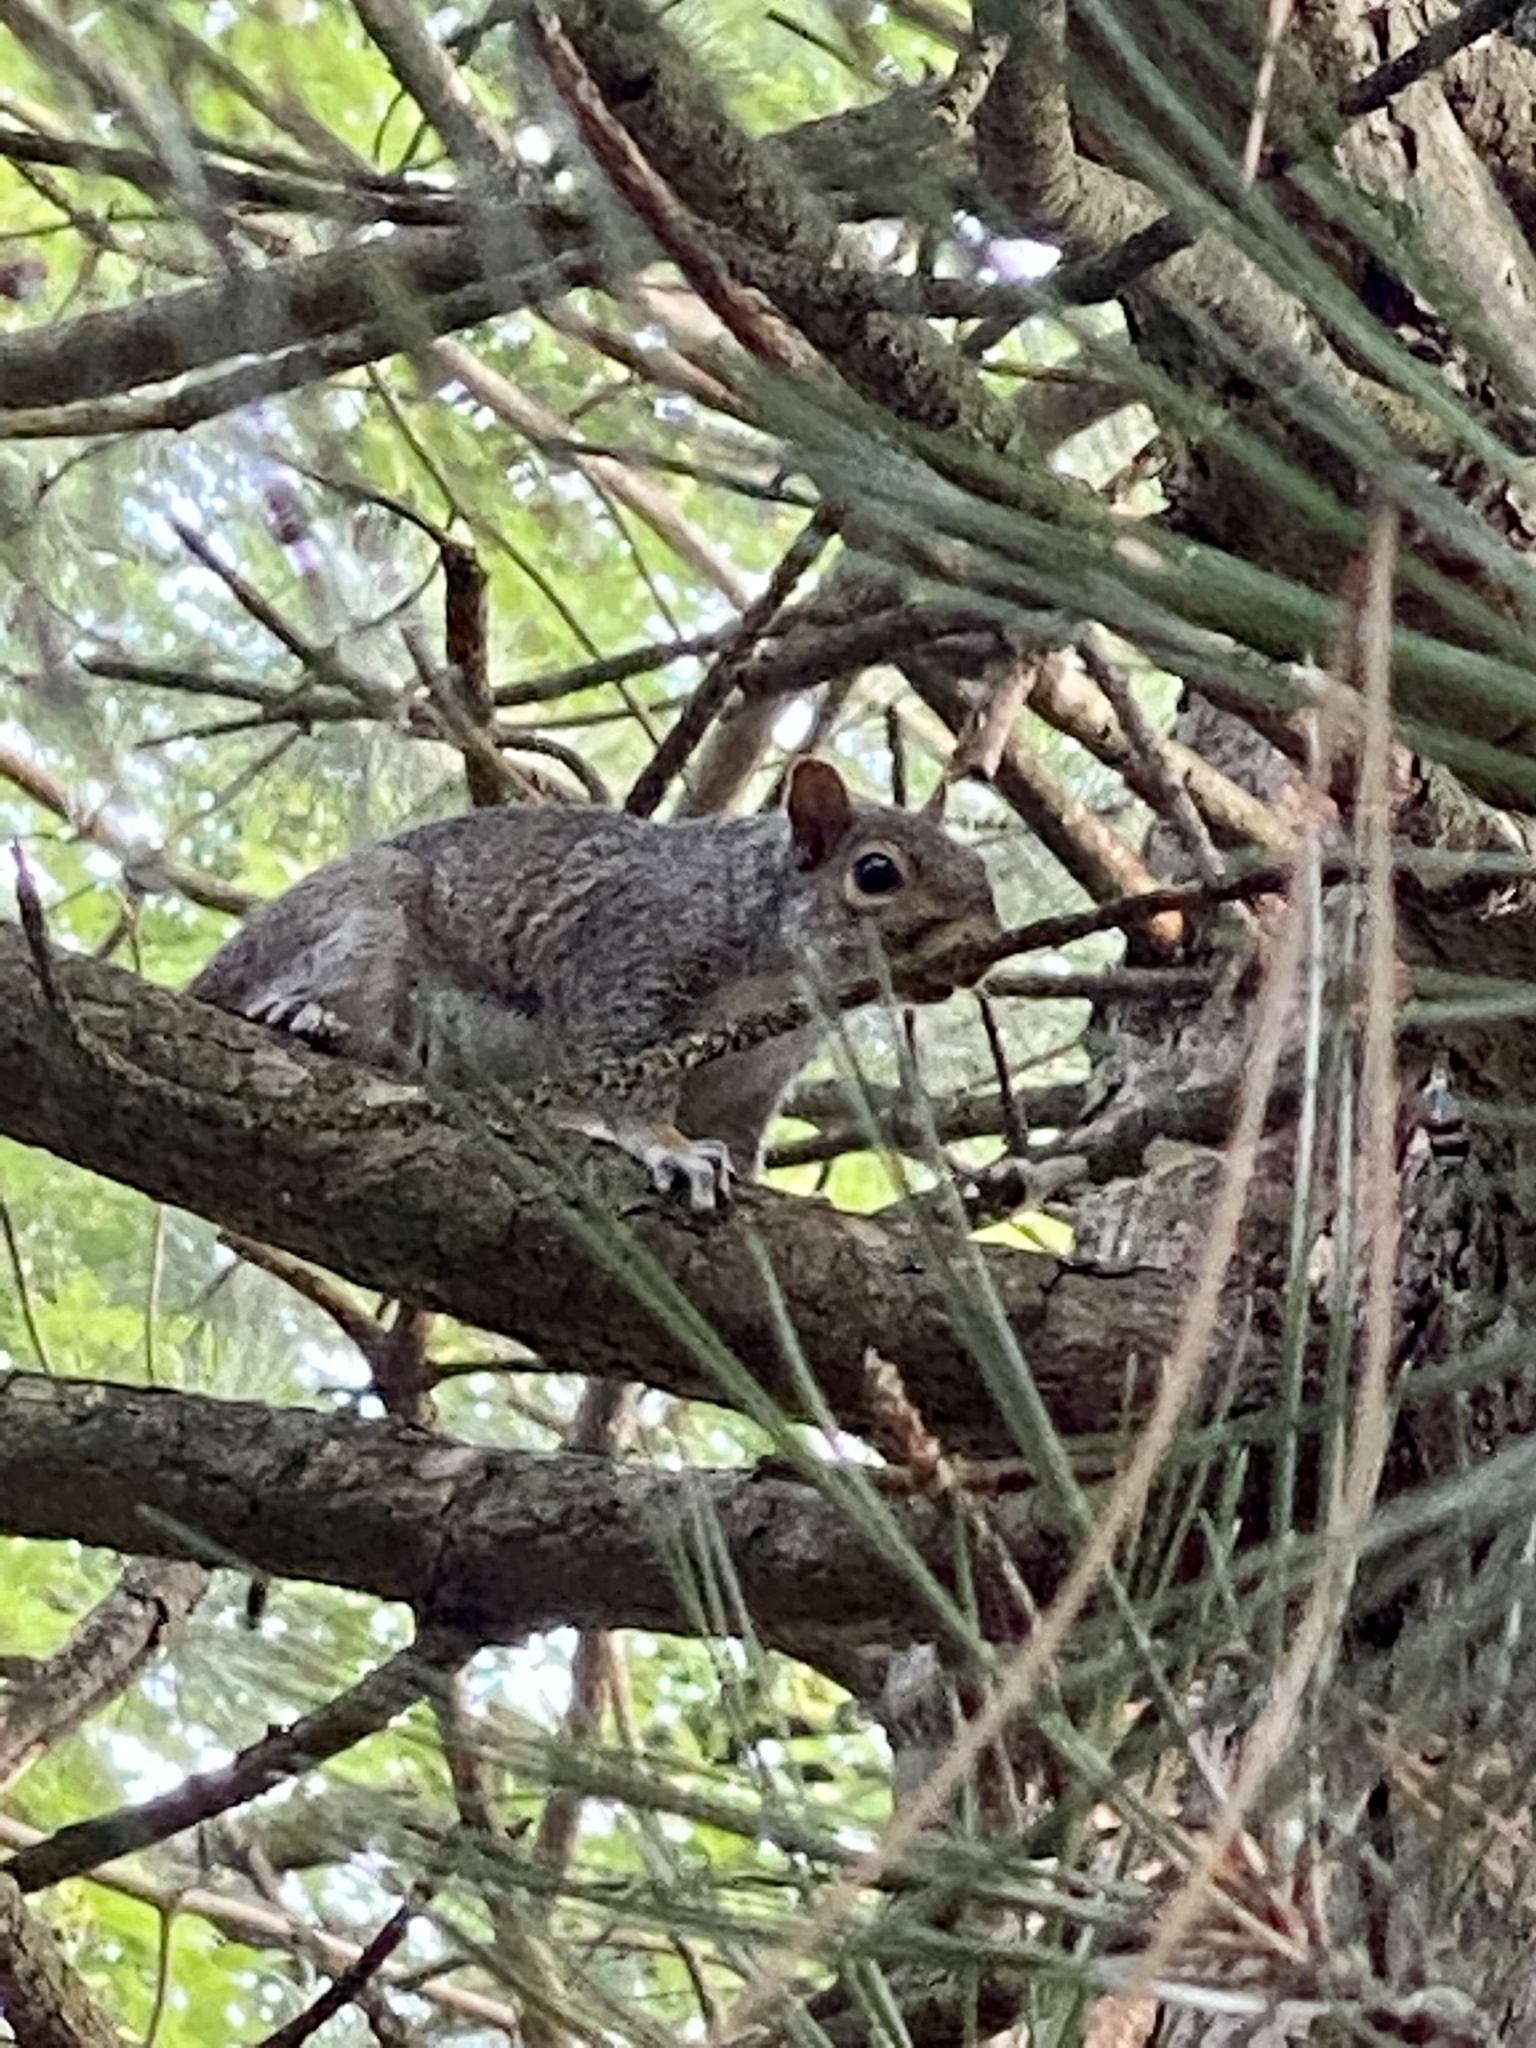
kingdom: Animalia
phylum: Chordata
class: Mammalia
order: Rodentia
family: Sciuridae
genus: Sciurus
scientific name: Sciurus carolinensis
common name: Eastern gray squirrel
